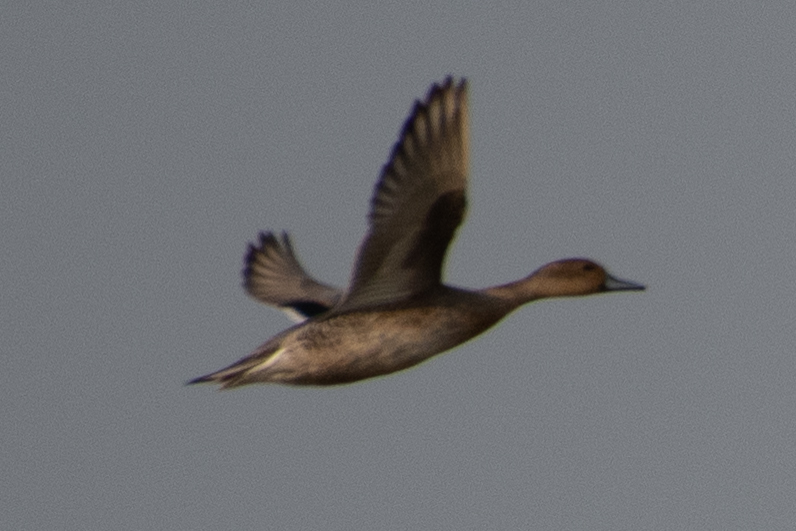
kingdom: Animalia
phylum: Chordata
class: Aves
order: Anseriformes
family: Anatidae
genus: Anas
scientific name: Anas acuta
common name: Northern pintail
